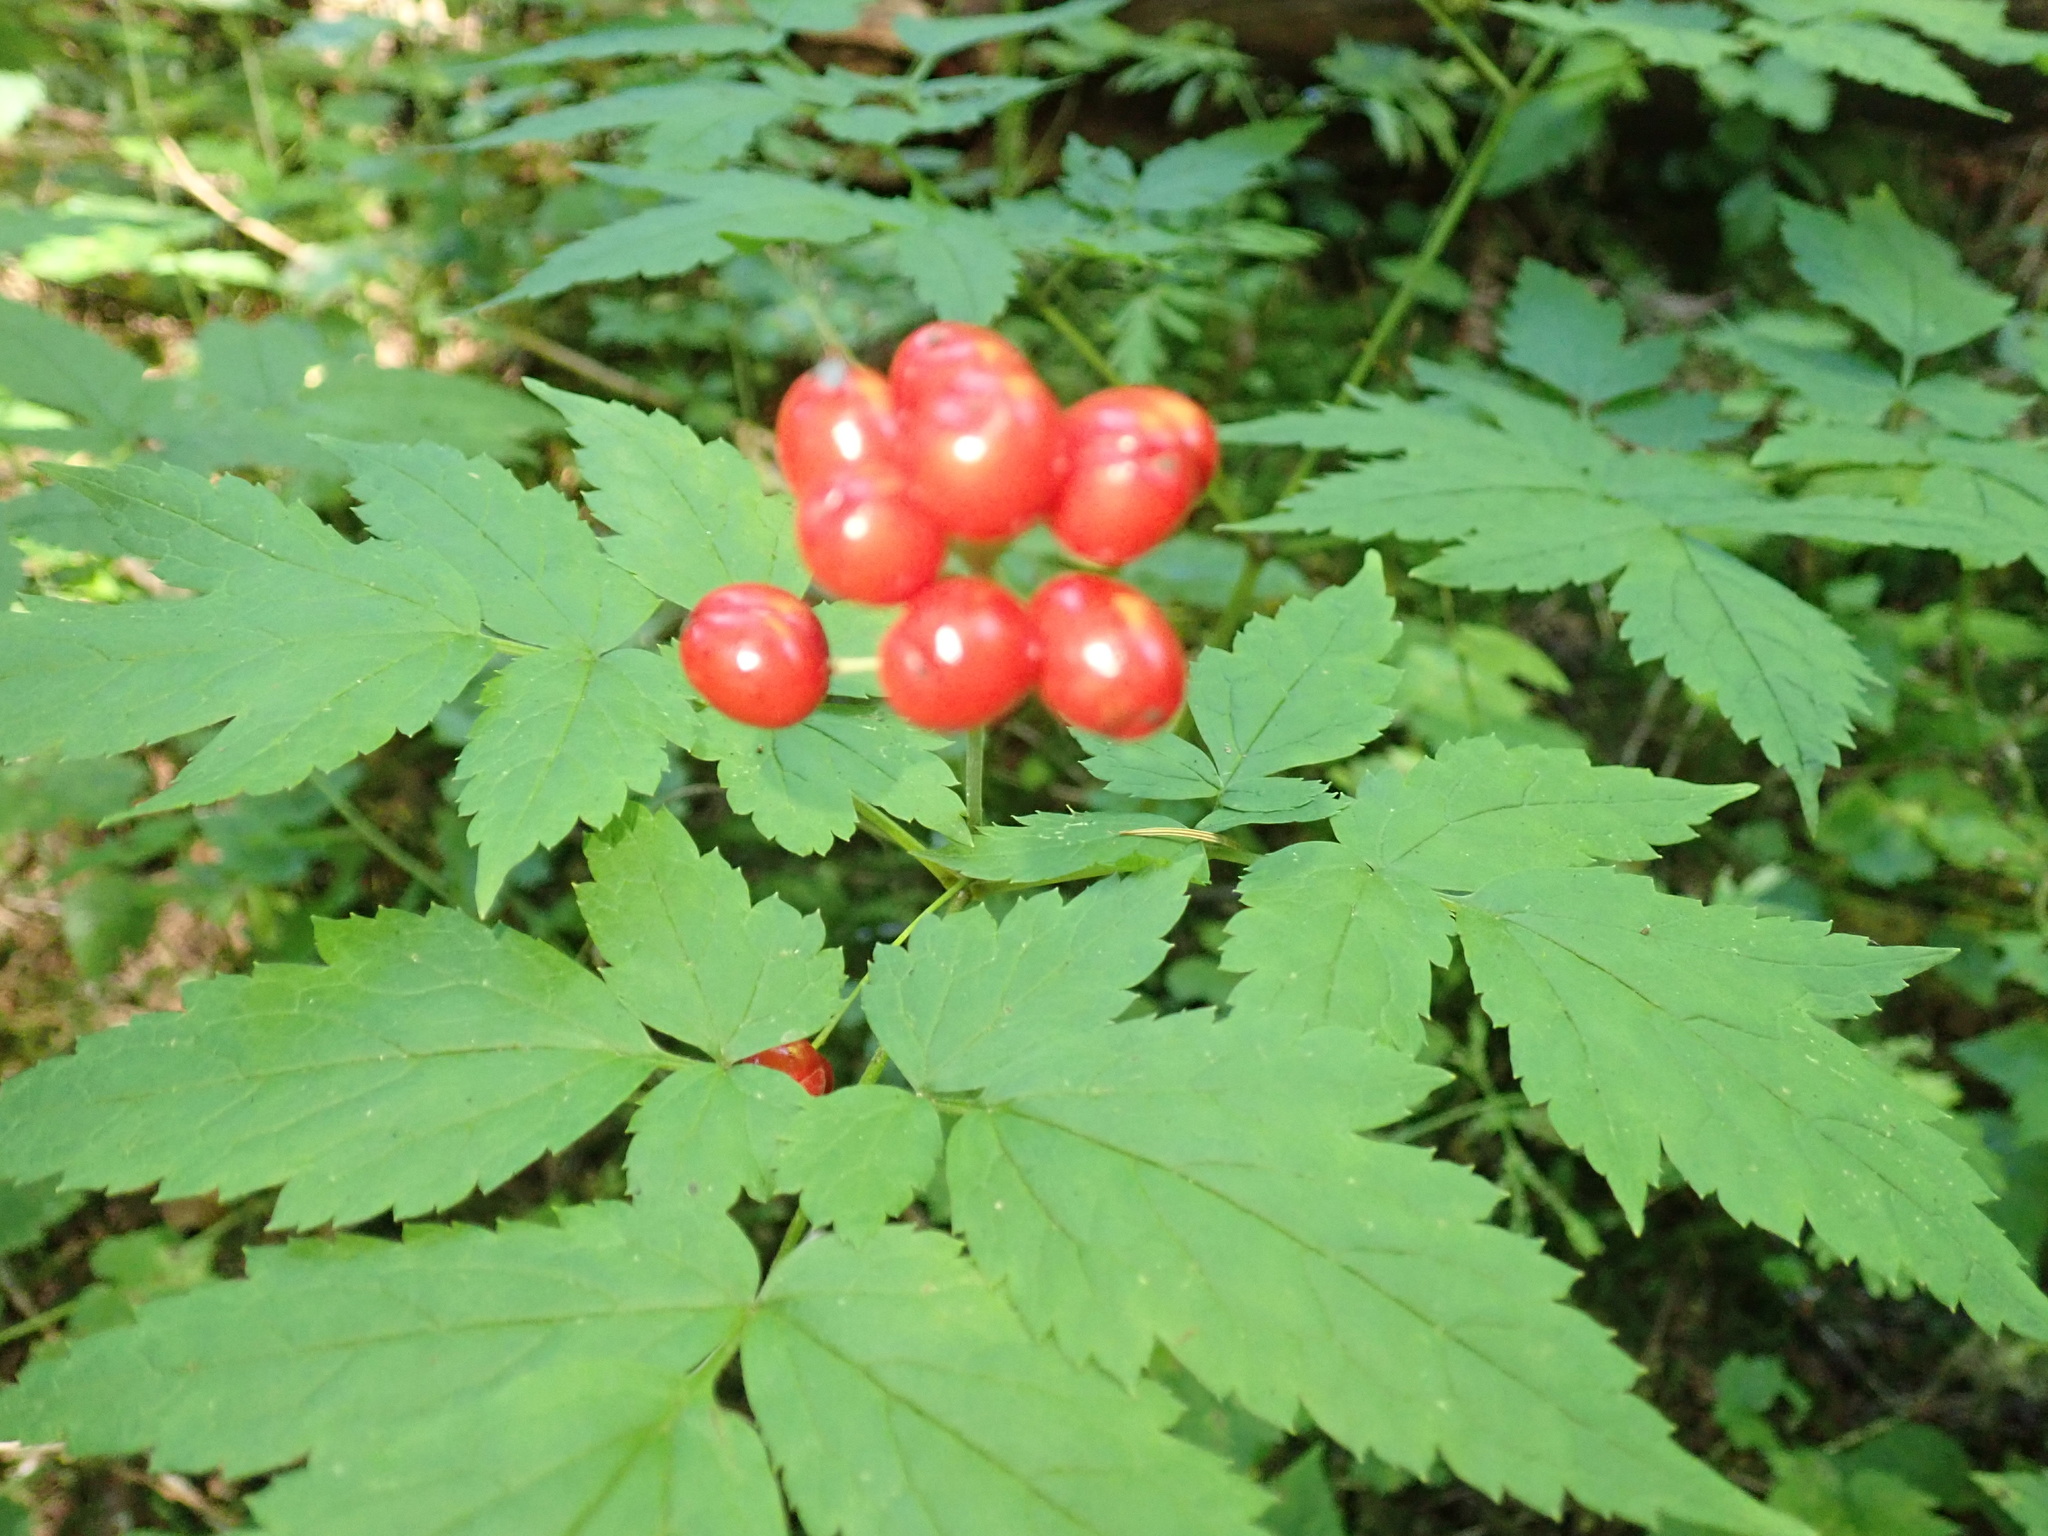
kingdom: Plantae
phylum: Tracheophyta
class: Magnoliopsida
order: Ranunculales
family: Ranunculaceae
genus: Actaea
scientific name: Actaea rubra
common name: Red baneberry
